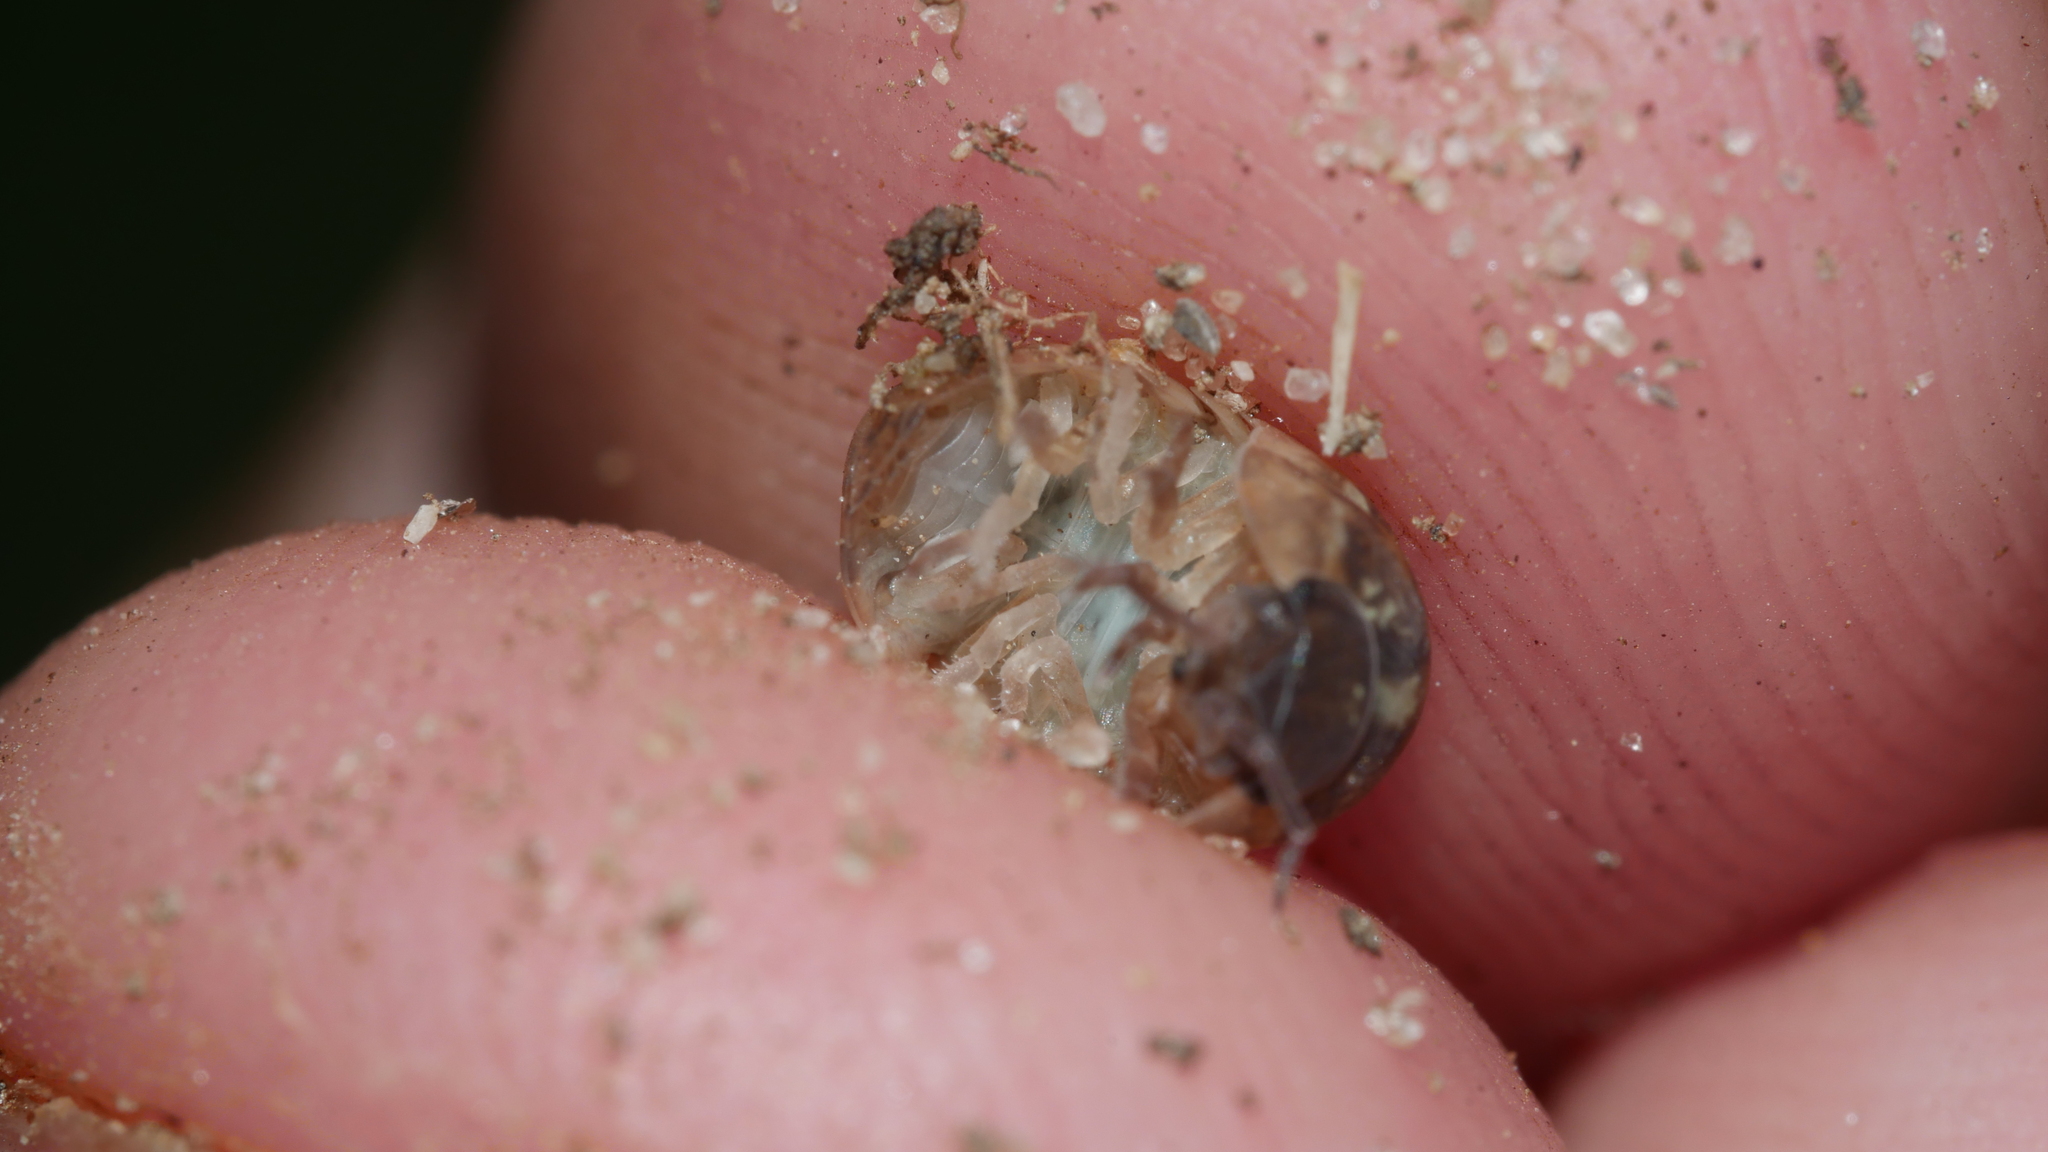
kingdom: Animalia
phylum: Arthropoda
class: Malacostraca
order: Isopoda
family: Armadillidiidae
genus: Armadillidium
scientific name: Armadillidium vulgare
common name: Common pill woodlouse
